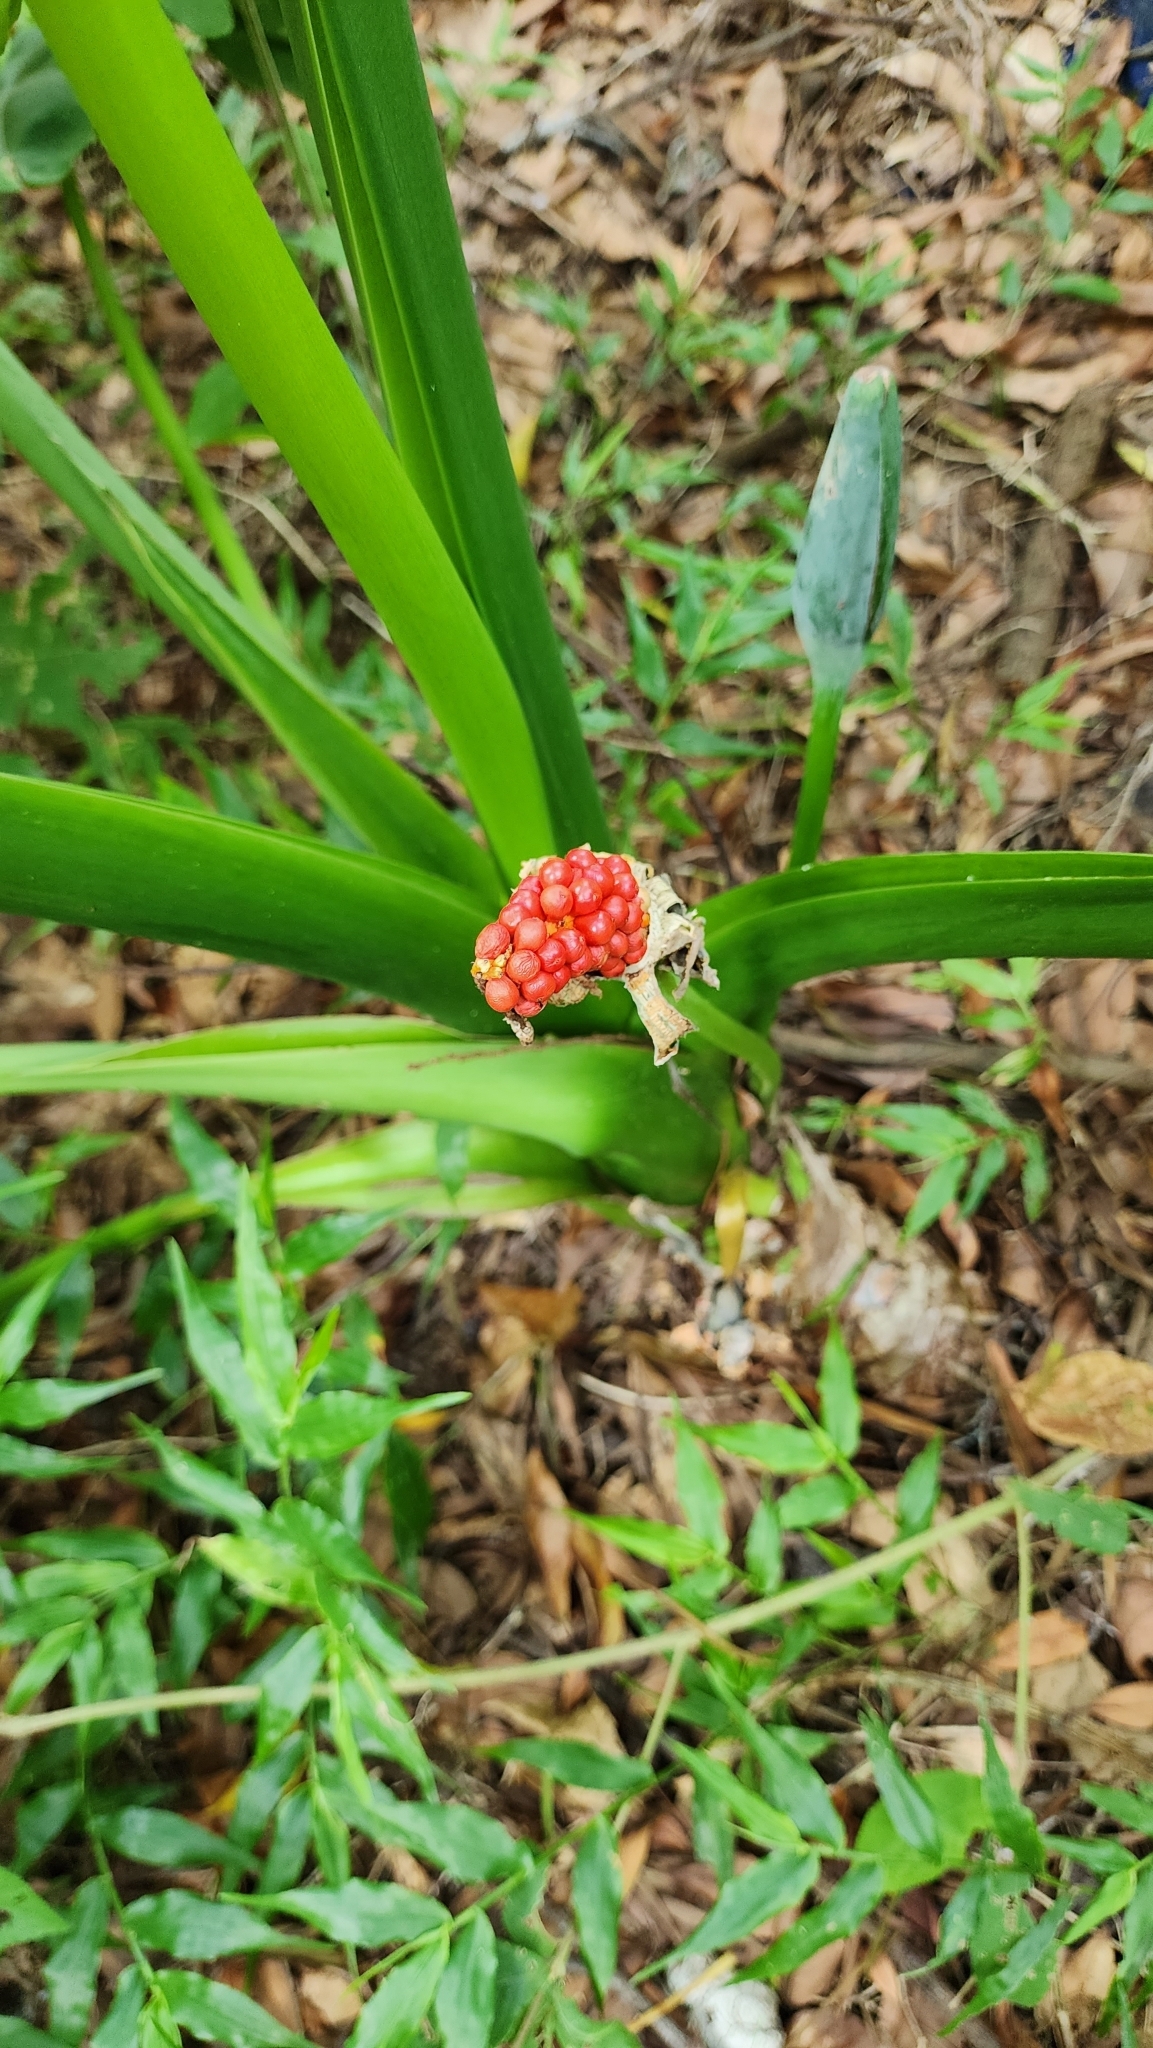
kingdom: Plantae
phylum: Tracheophyta
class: Liliopsida
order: Alismatales
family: Araceae
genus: Alocasia
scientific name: Alocasia odora
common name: Asian taro
